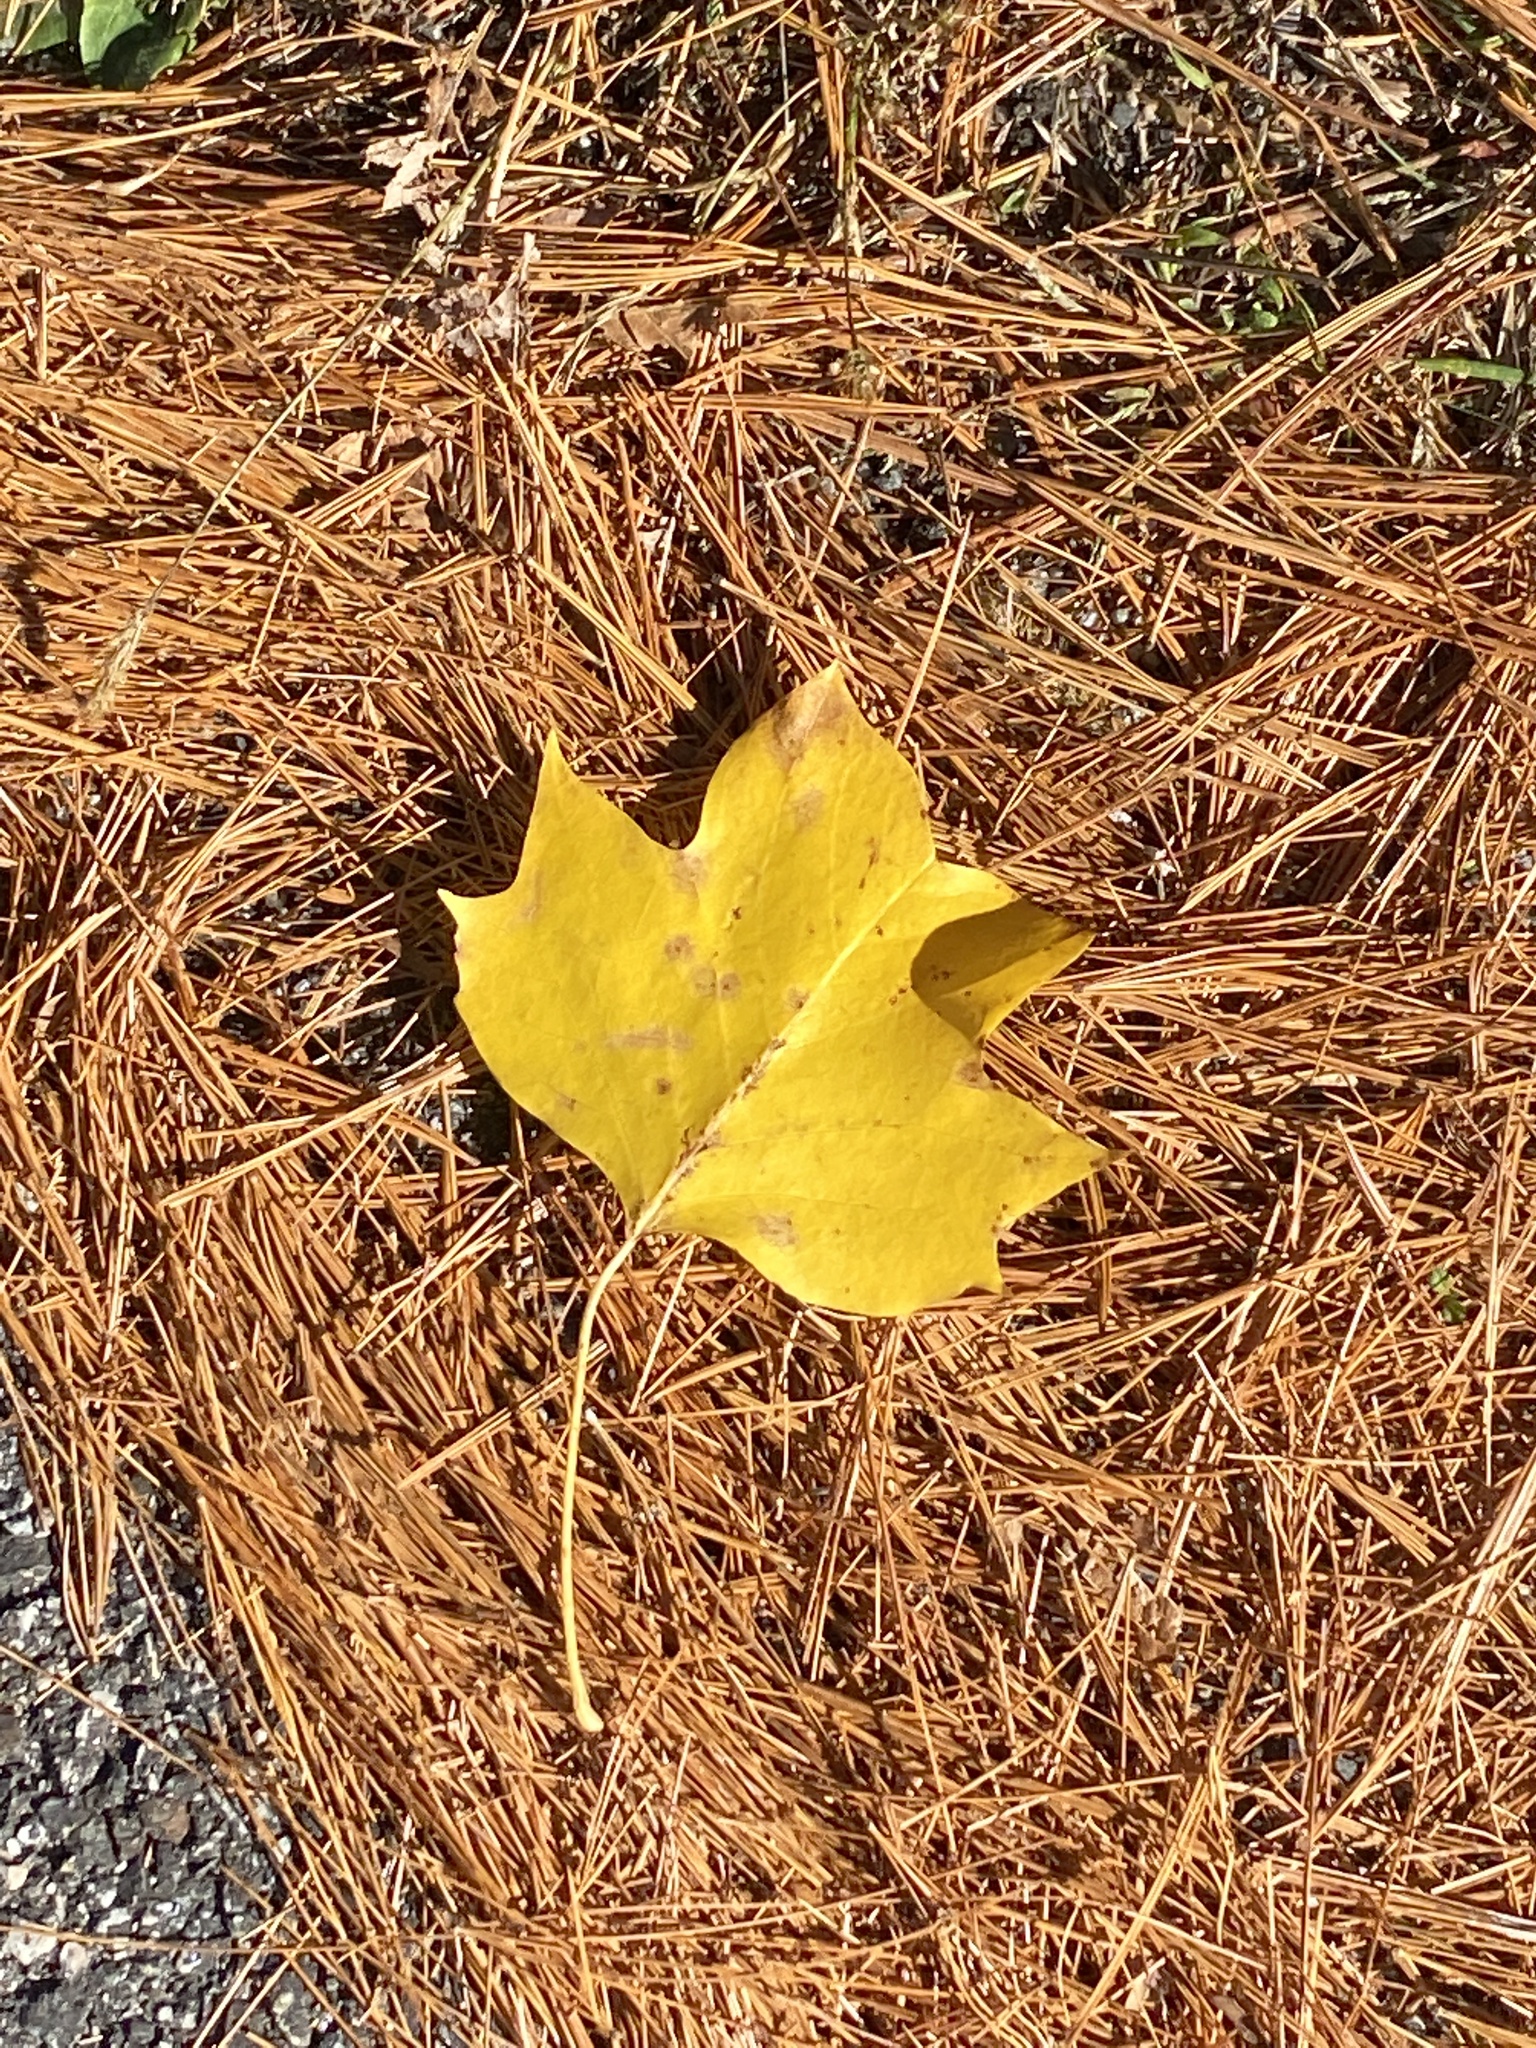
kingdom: Plantae
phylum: Tracheophyta
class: Magnoliopsida
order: Magnoliales
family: Magnoliaceae
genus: Liriodendron
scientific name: Liriodendron tulipifera
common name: Tulip tree
